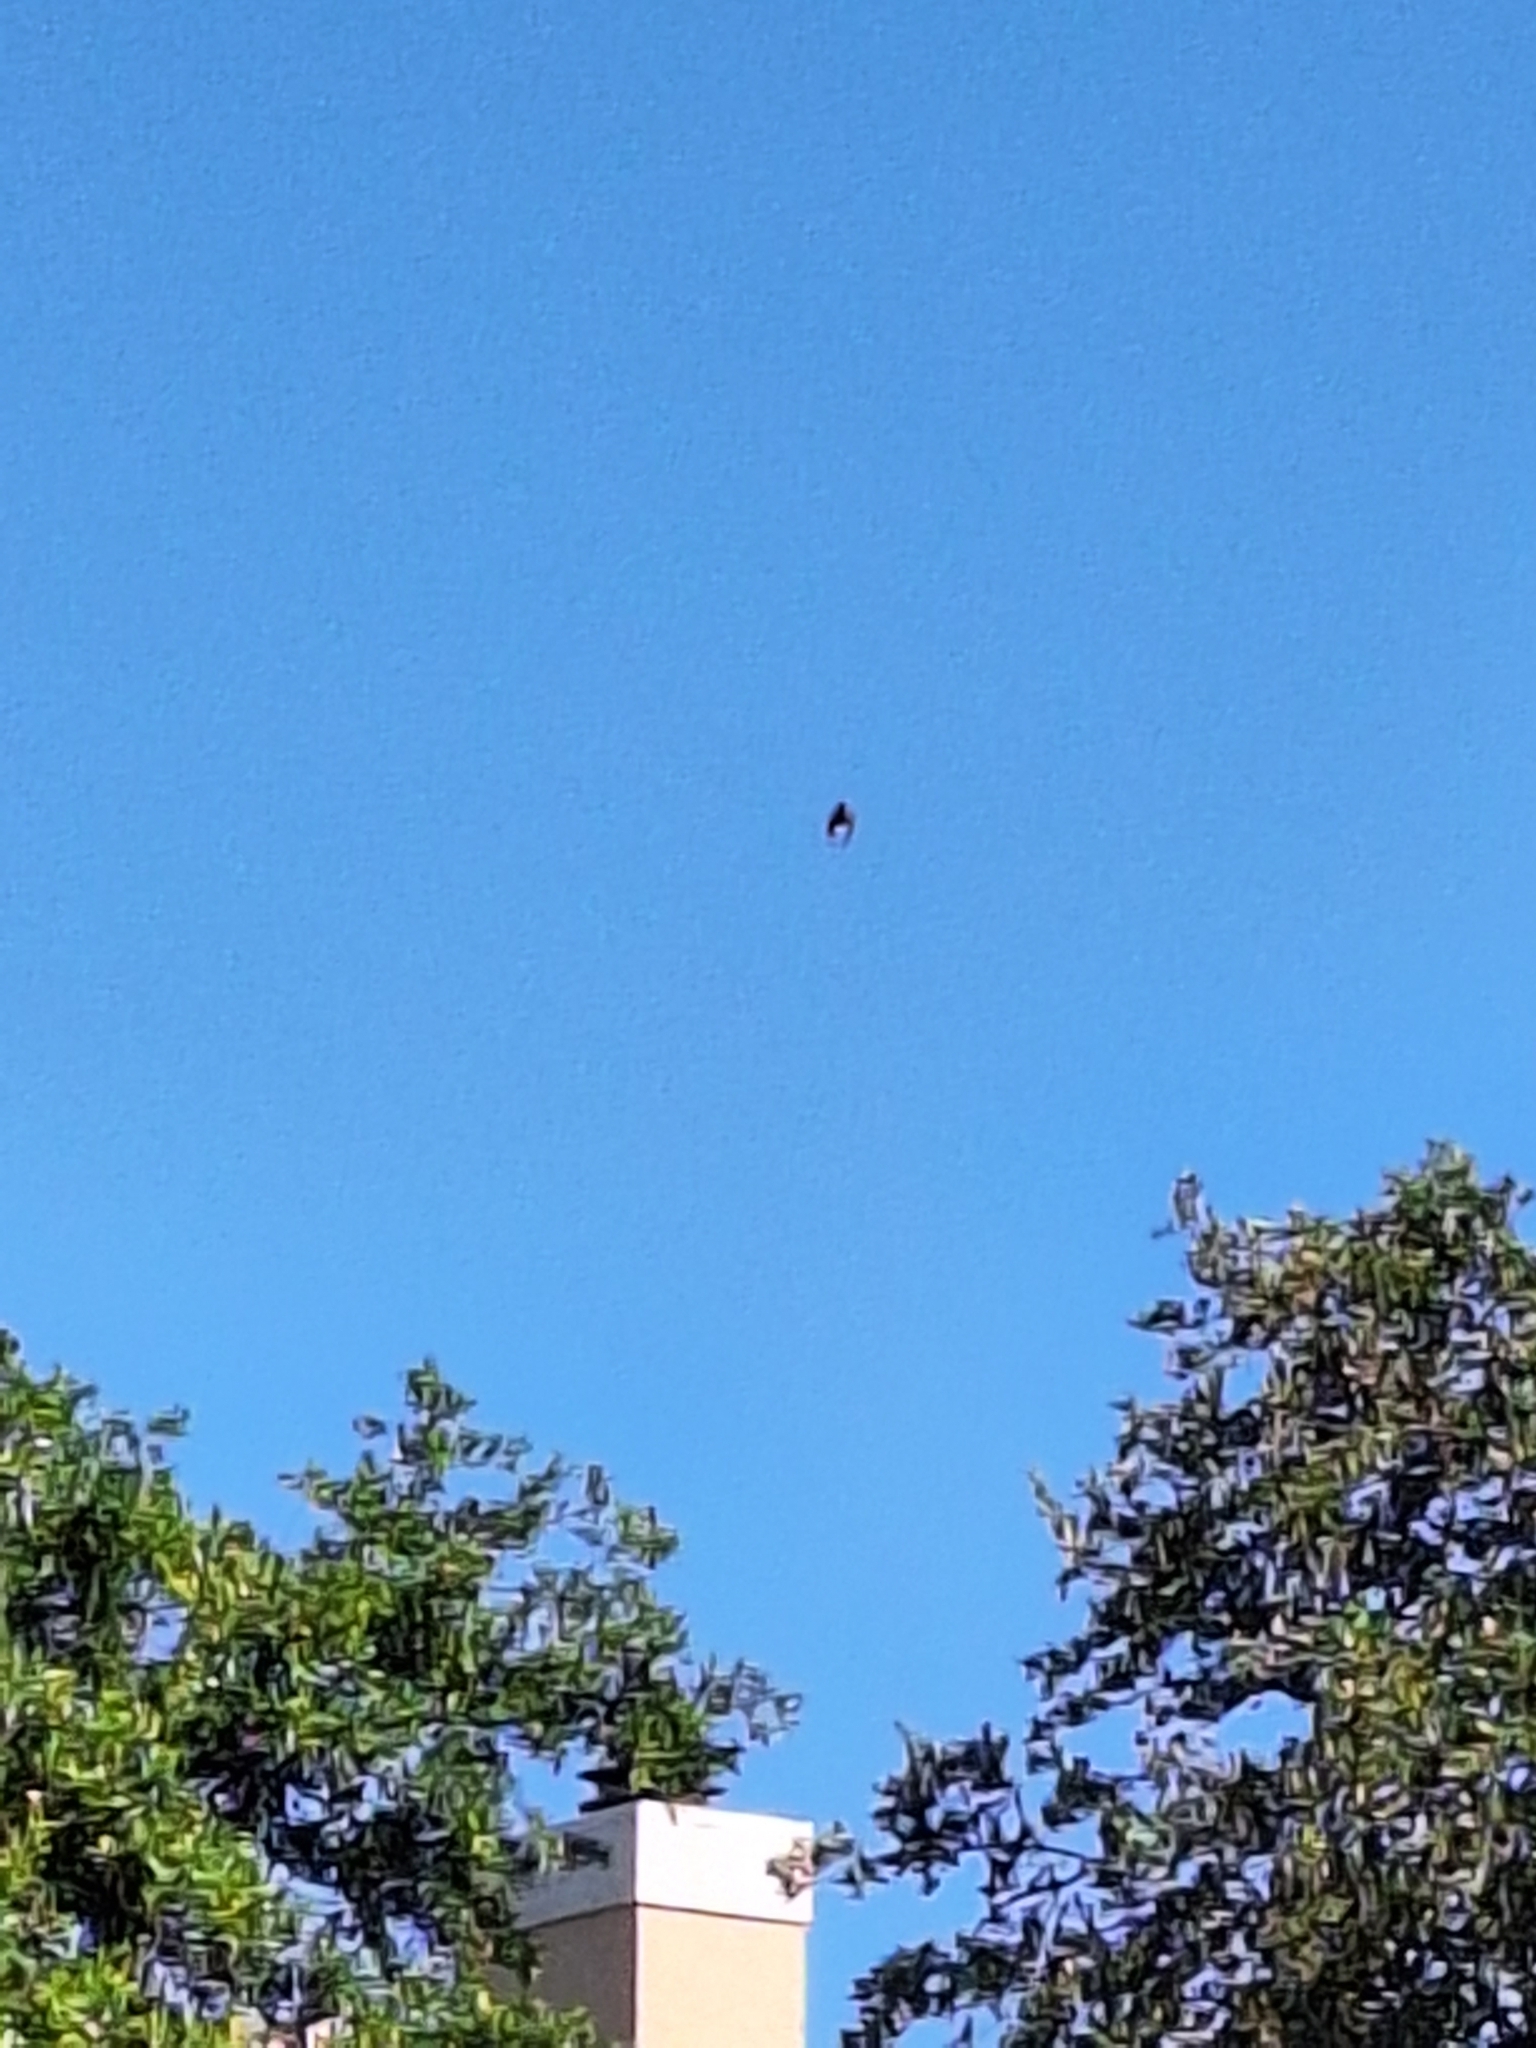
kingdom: Animalia
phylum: Chordata
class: Aves
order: Passeriformes
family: Cardinalidae
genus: Cardinalis
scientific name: Cardinalis cardinalis
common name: Northern cardinal
